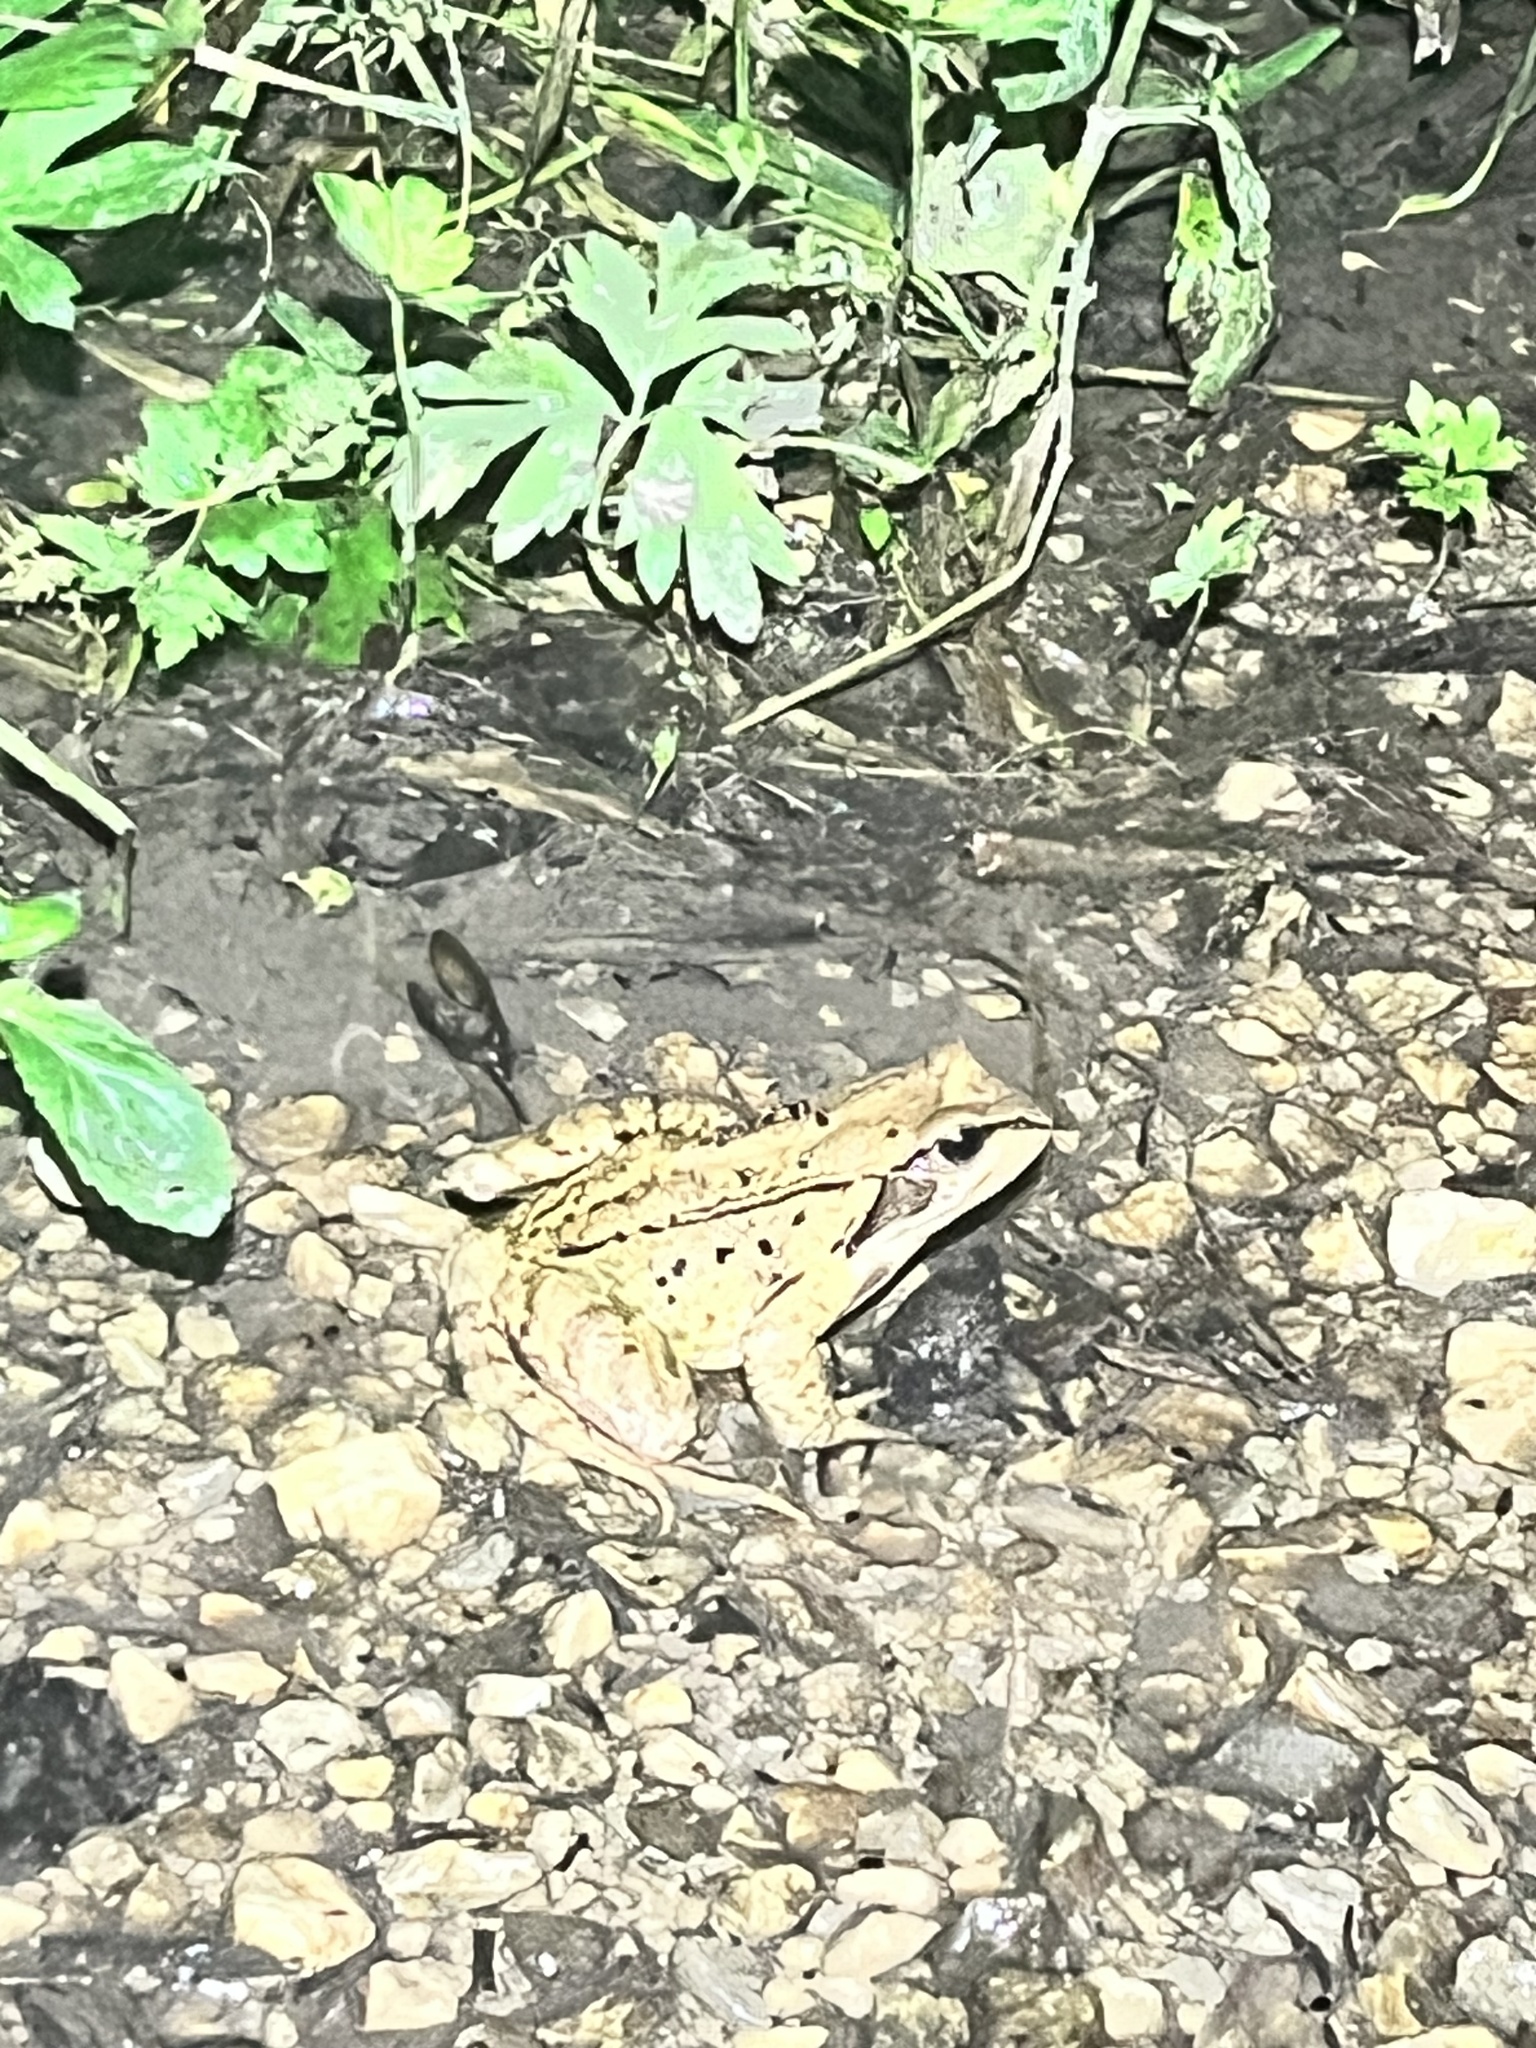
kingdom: Animalia
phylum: Chordata
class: Amphibia
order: Anura
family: Ranidae
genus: Rana
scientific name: Rana temporaria
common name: Common frog
